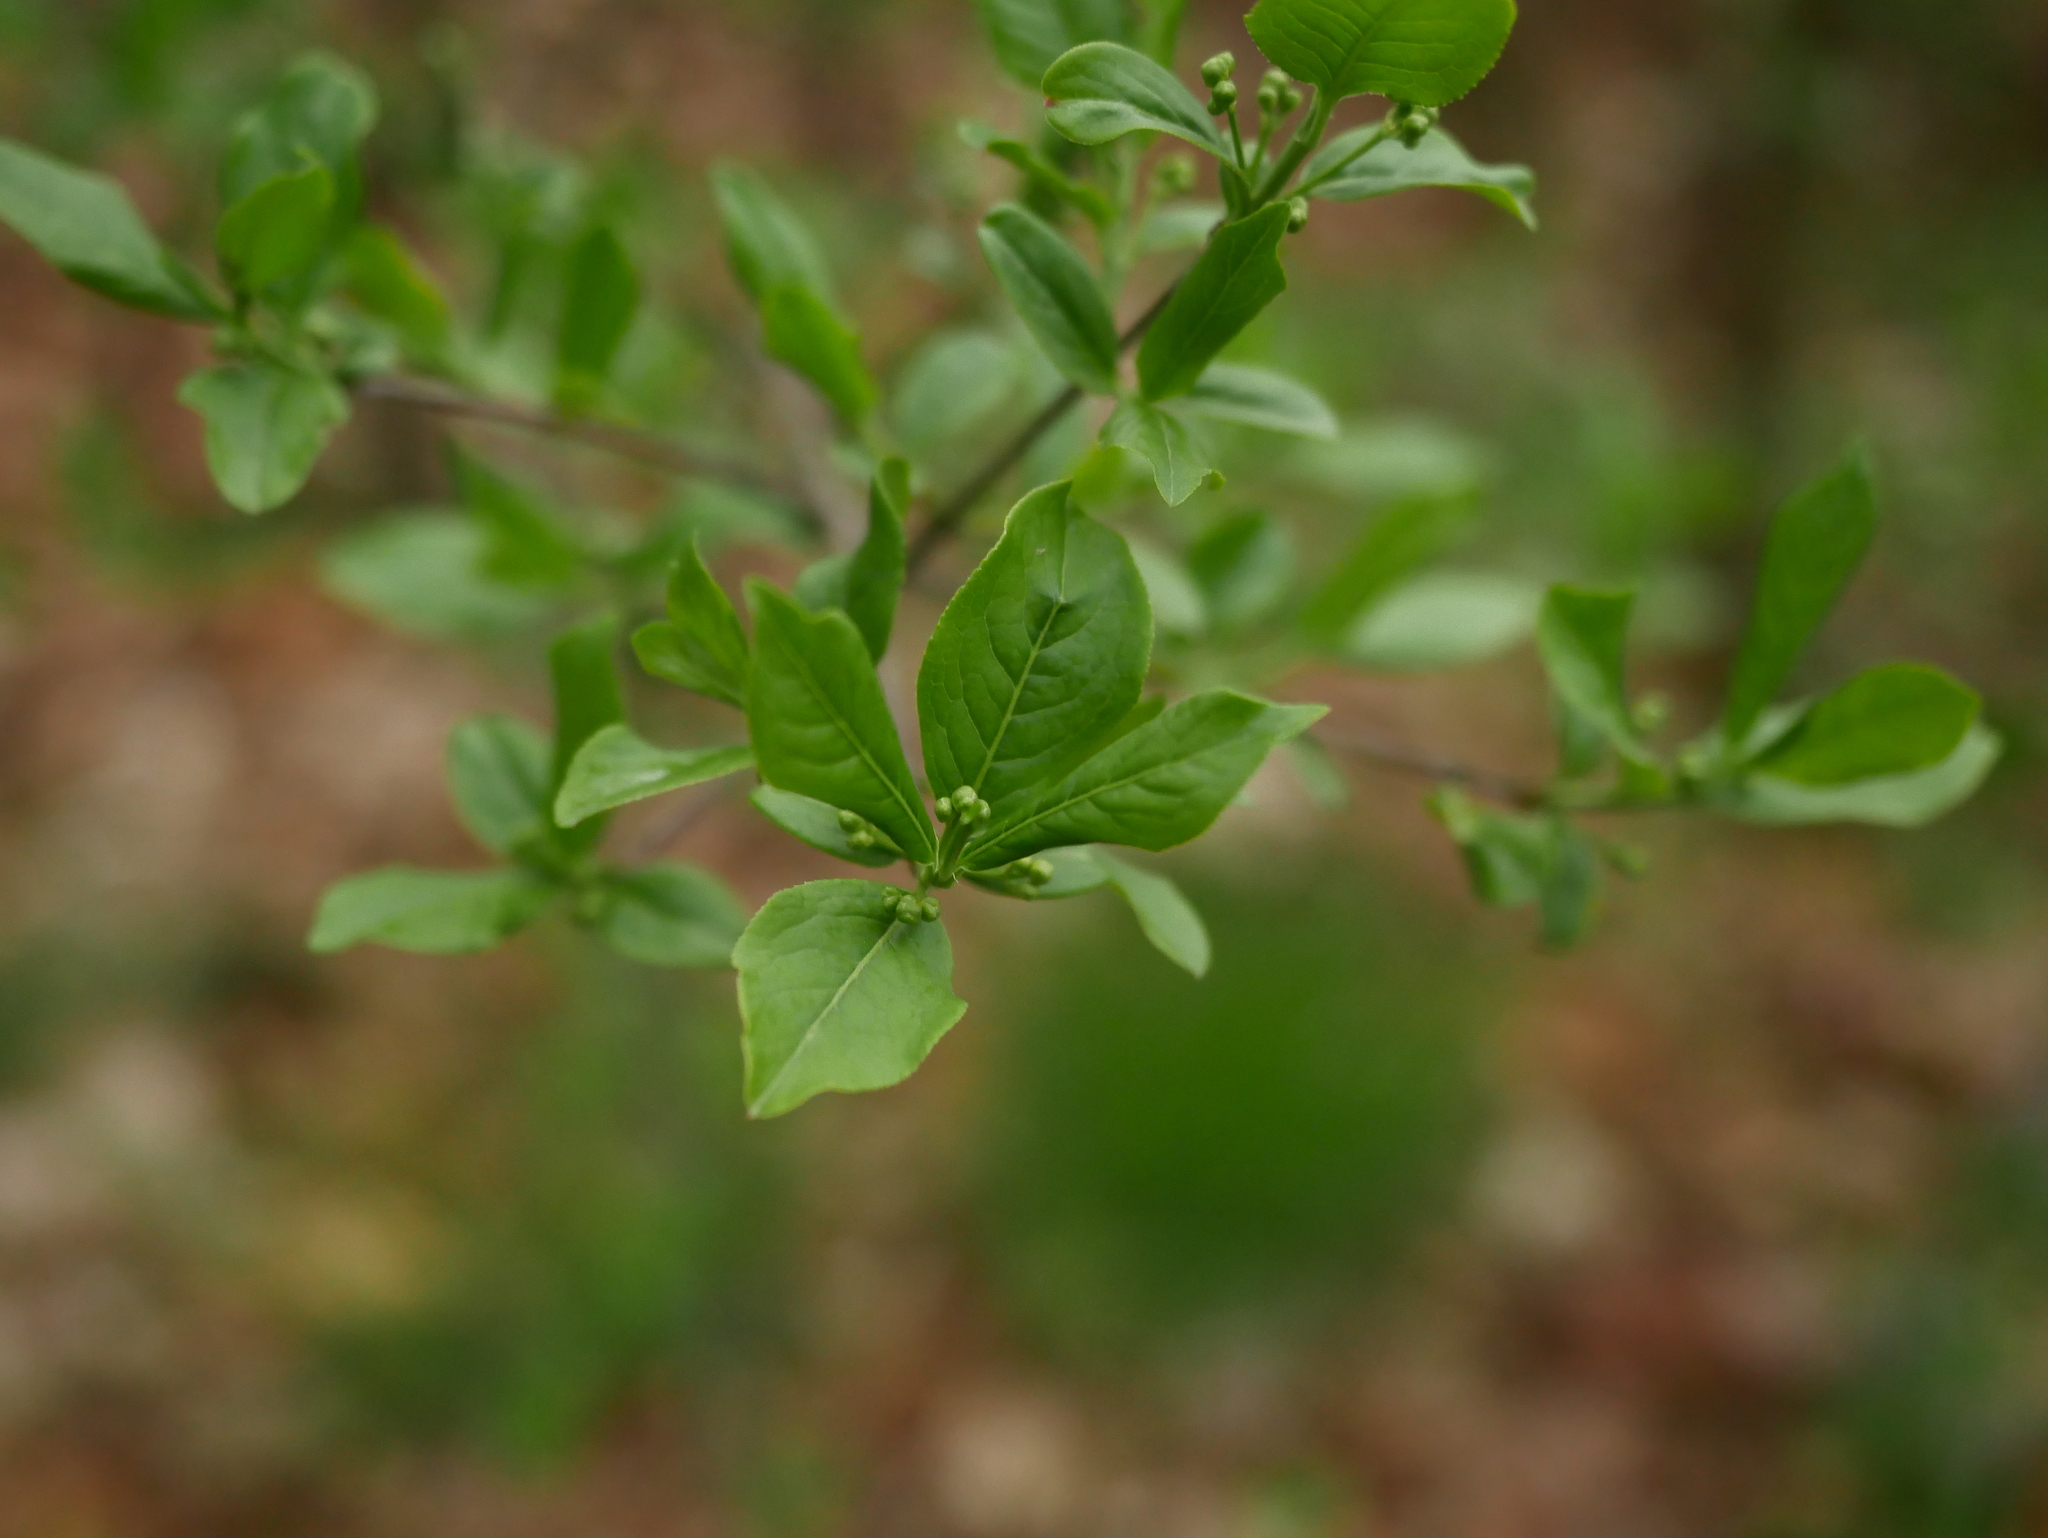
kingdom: Plantae
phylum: Tracheophyta
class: Magnoliopsida
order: Celastrales
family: Celastraceae
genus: Euonymus
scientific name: Euonymus europaeus
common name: Spindle
